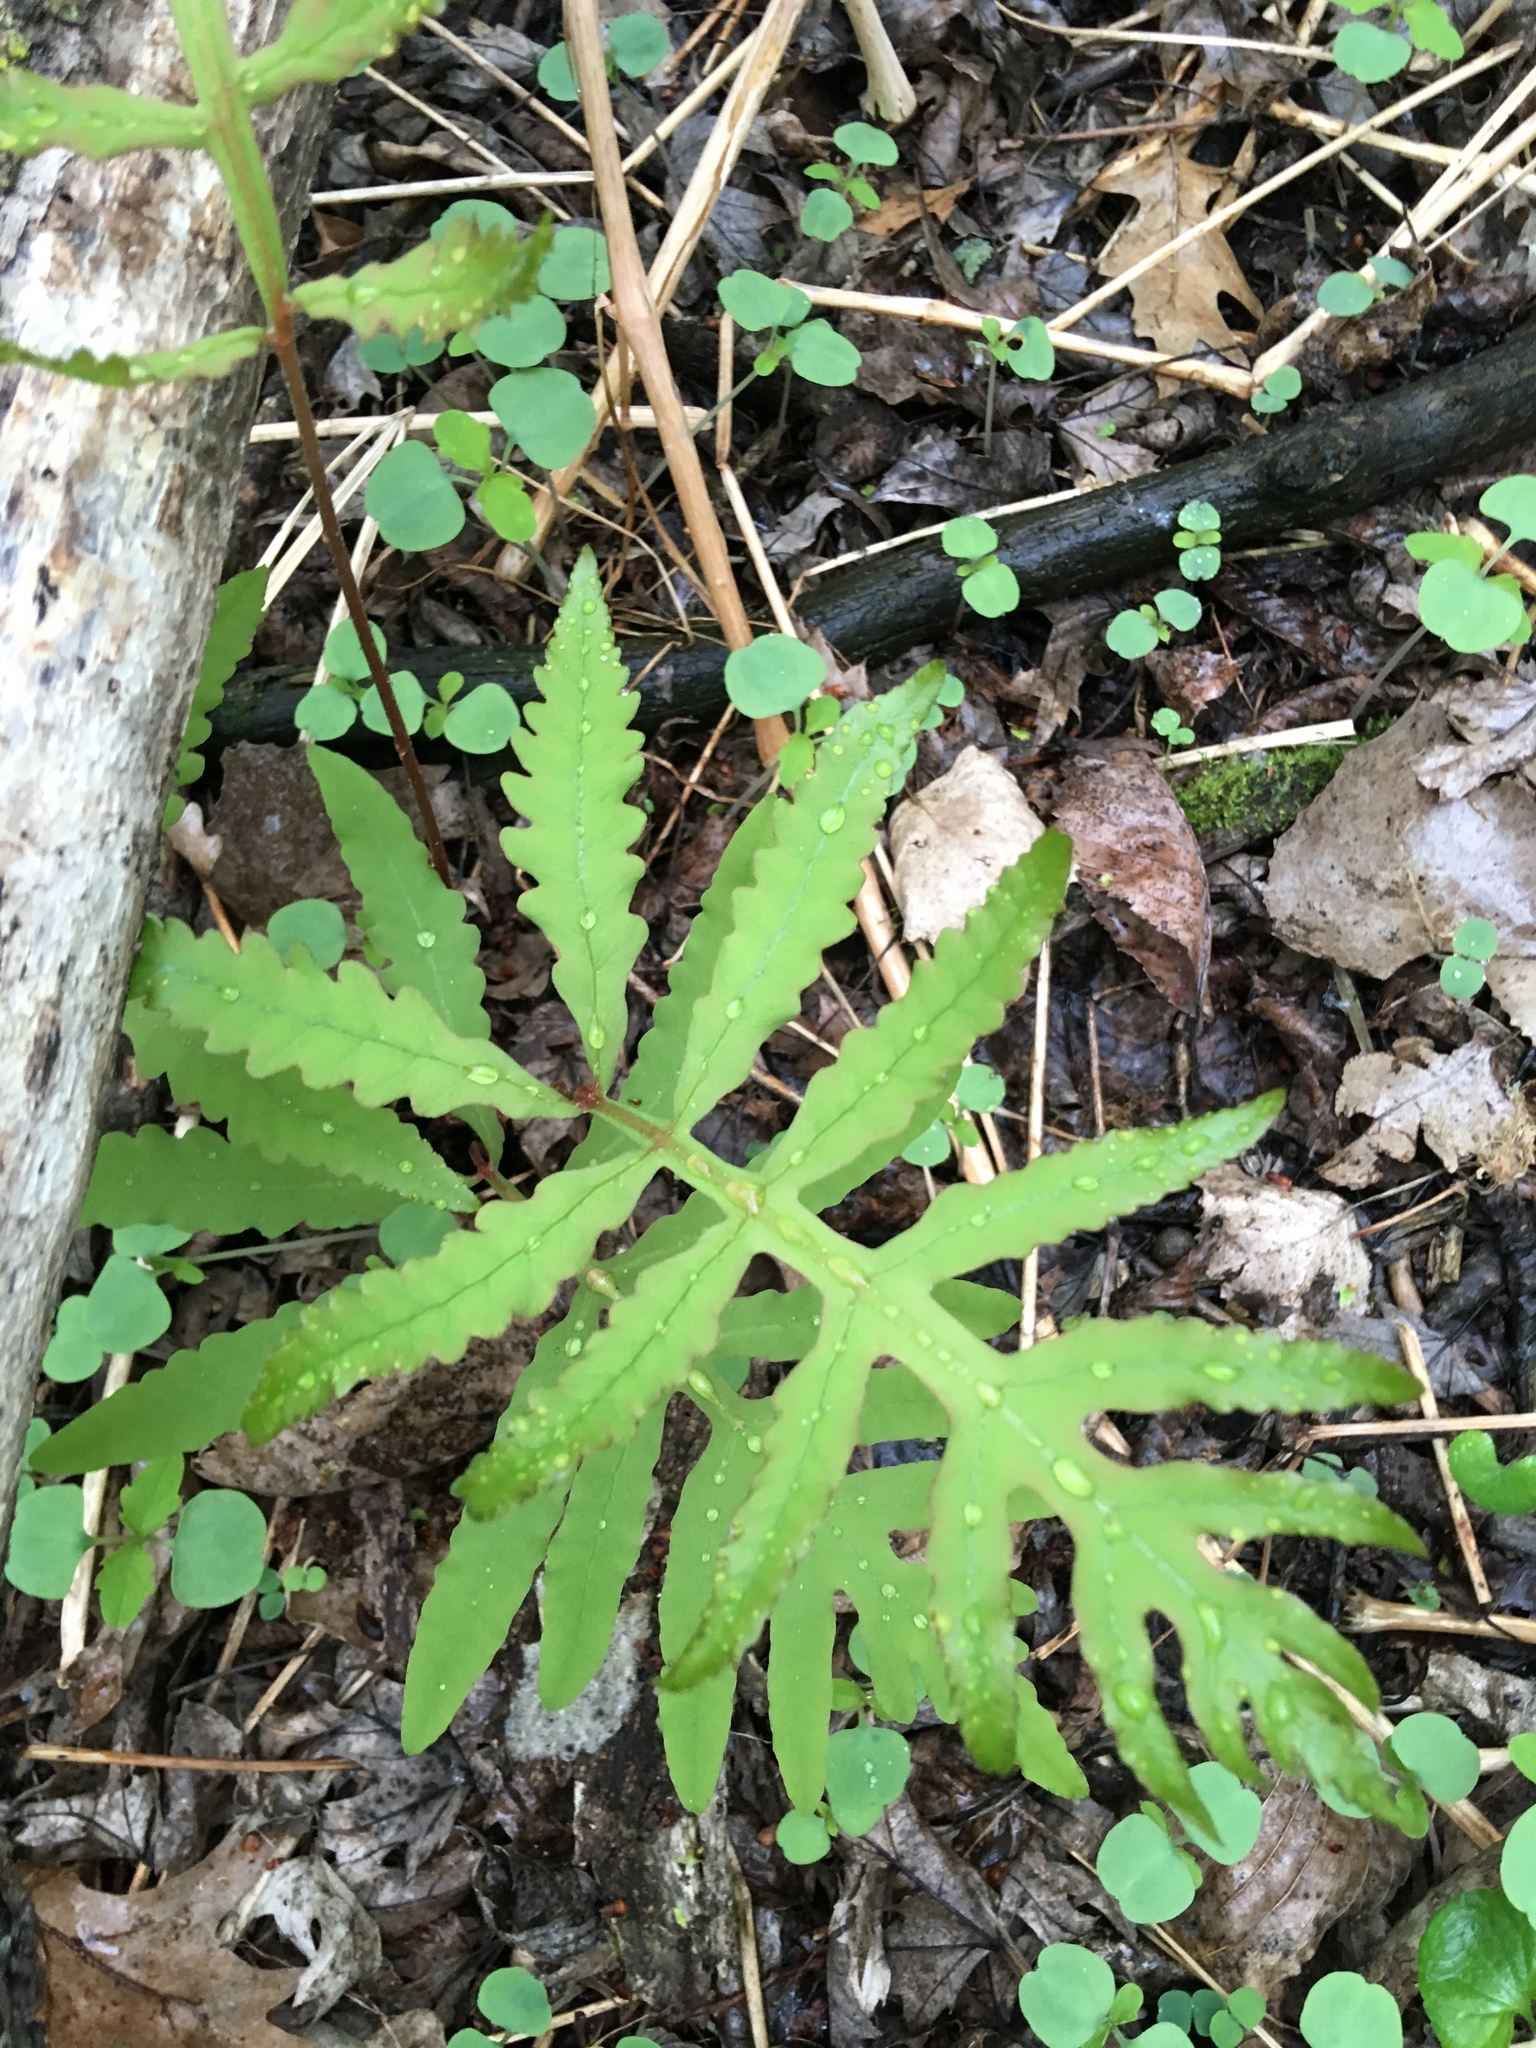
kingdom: Plantae
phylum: Tracheophyta
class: Polypodiopsida
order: Polypodiales
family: Onocleaceae
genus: Onoclea
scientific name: Onoclea sensibilis
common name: Sensitive fern
